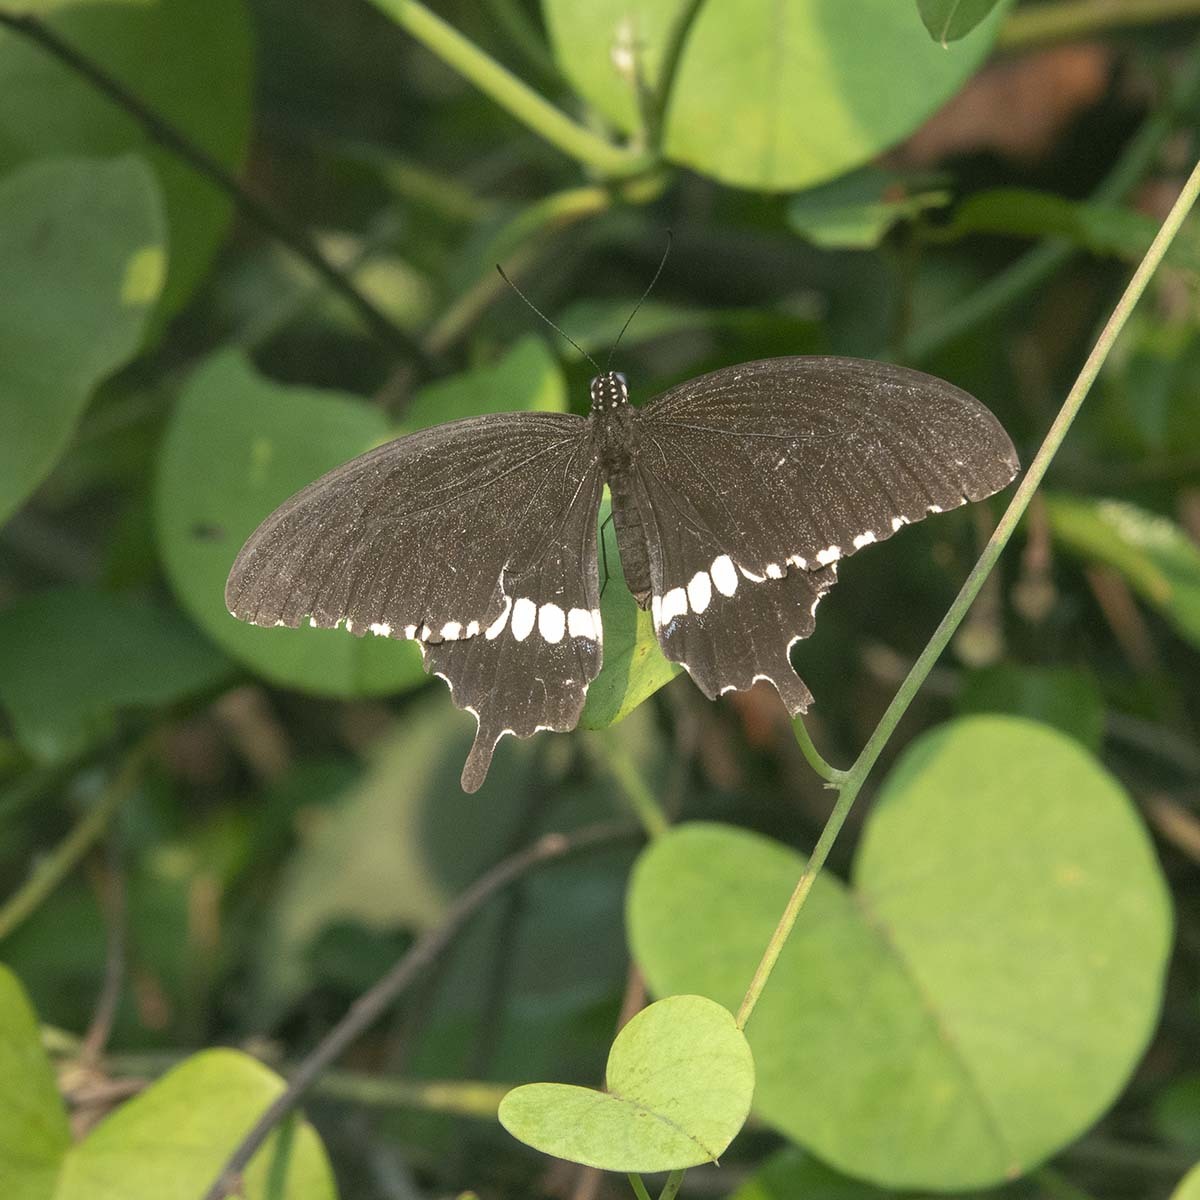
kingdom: Animalia
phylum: Arthropoda
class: Insecta
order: Lepidoptera
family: Papilionidae
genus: Papilio
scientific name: Papilio polytes
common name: Common mormon
